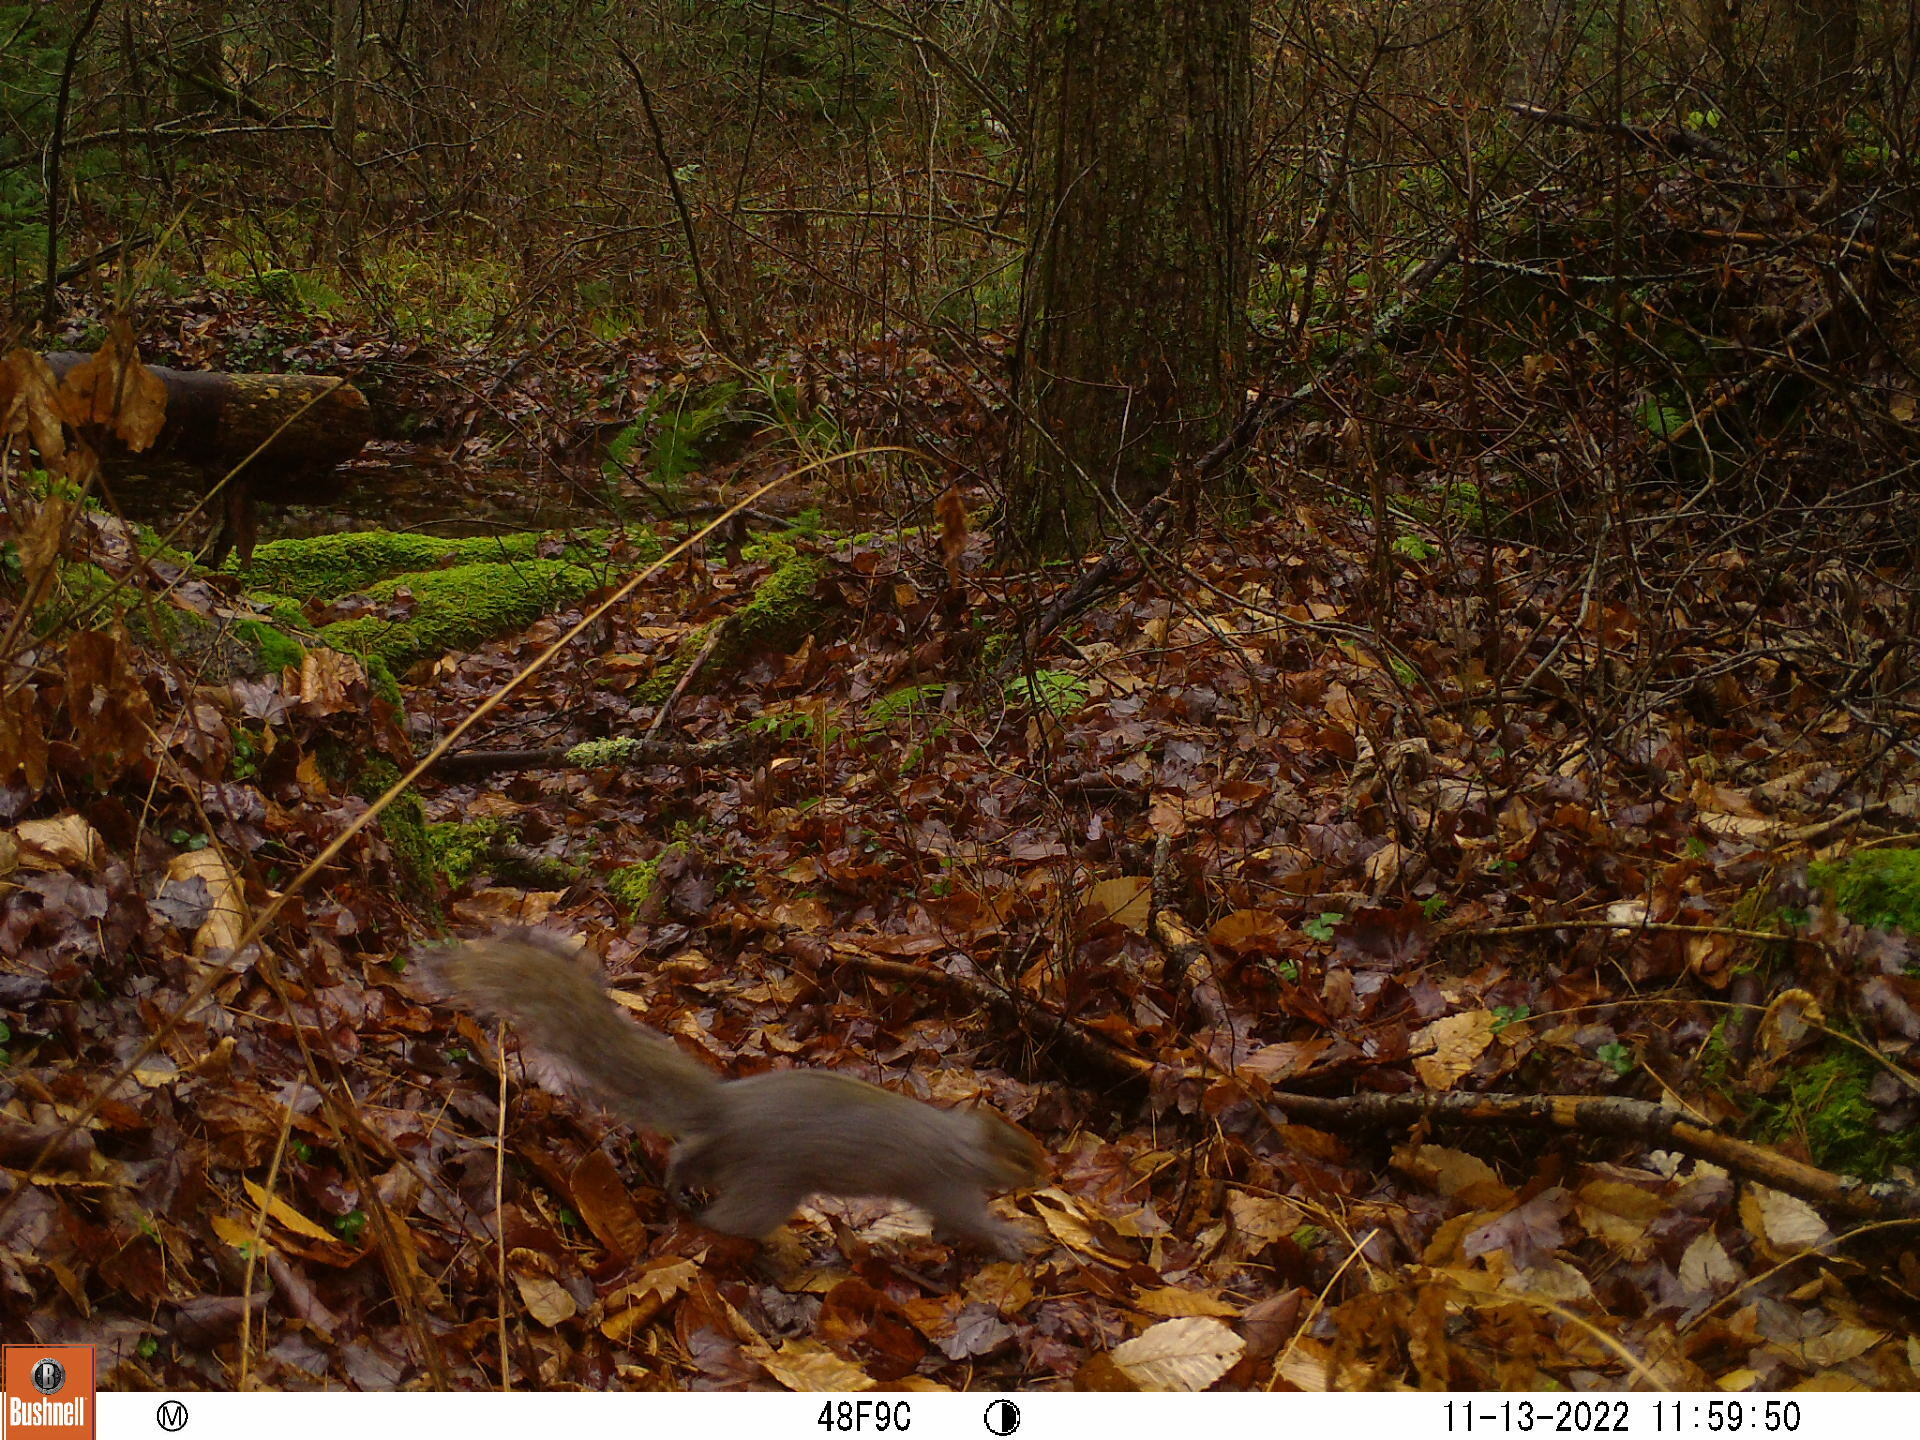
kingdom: Animalia
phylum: Chordata
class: Mammalia
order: Rodentia
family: Sciuridae
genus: Sciurus
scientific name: Sciurus carolinensis
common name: Eastern gray squirrel
